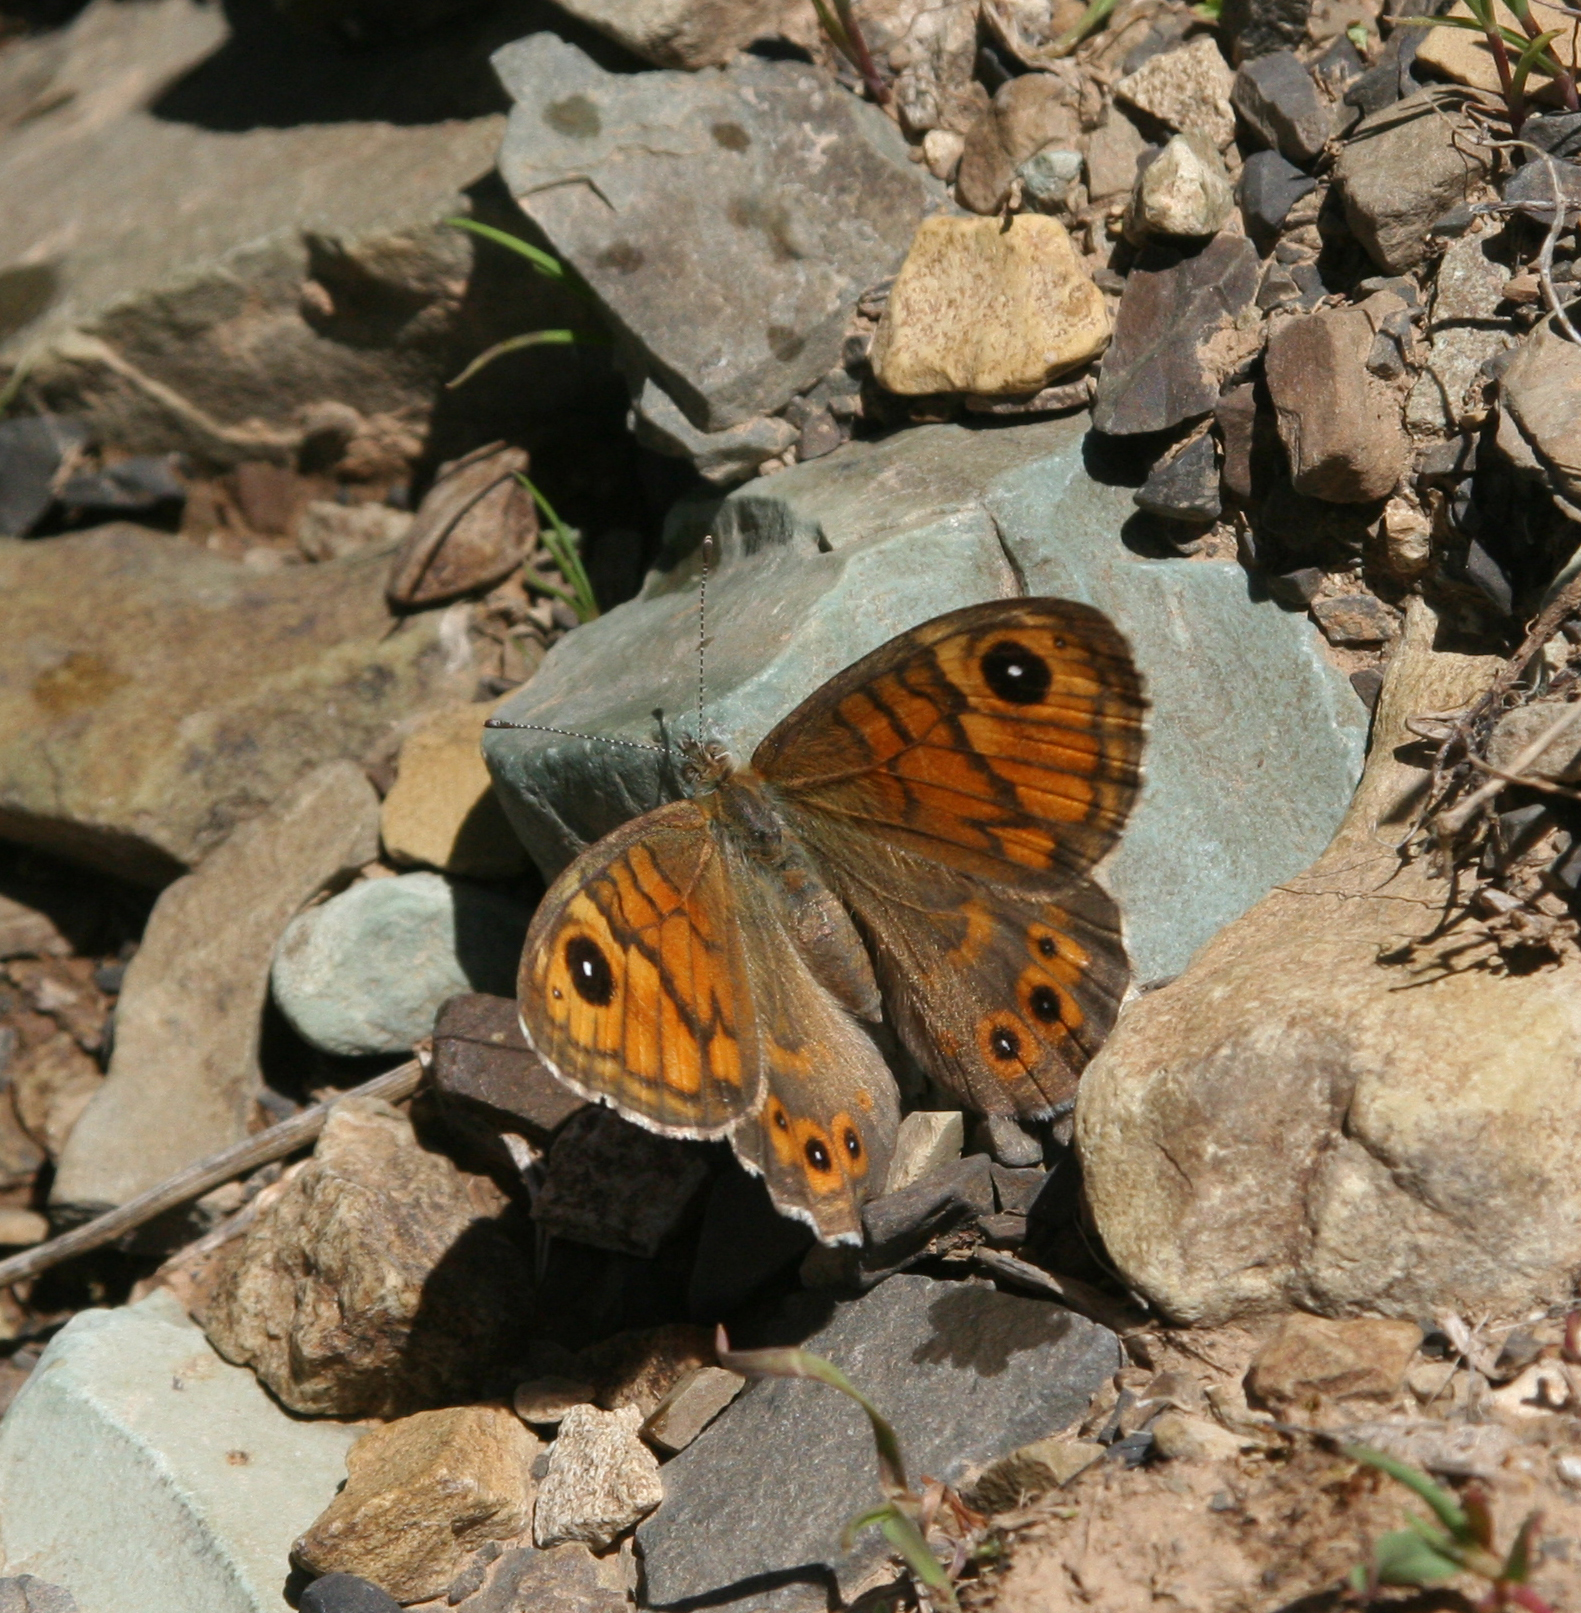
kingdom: Animalia
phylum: Arthropoda
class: Insecta
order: Lepidoptera
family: Nymphalidae
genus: Pararge
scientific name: Pararge Lasiommata megera
